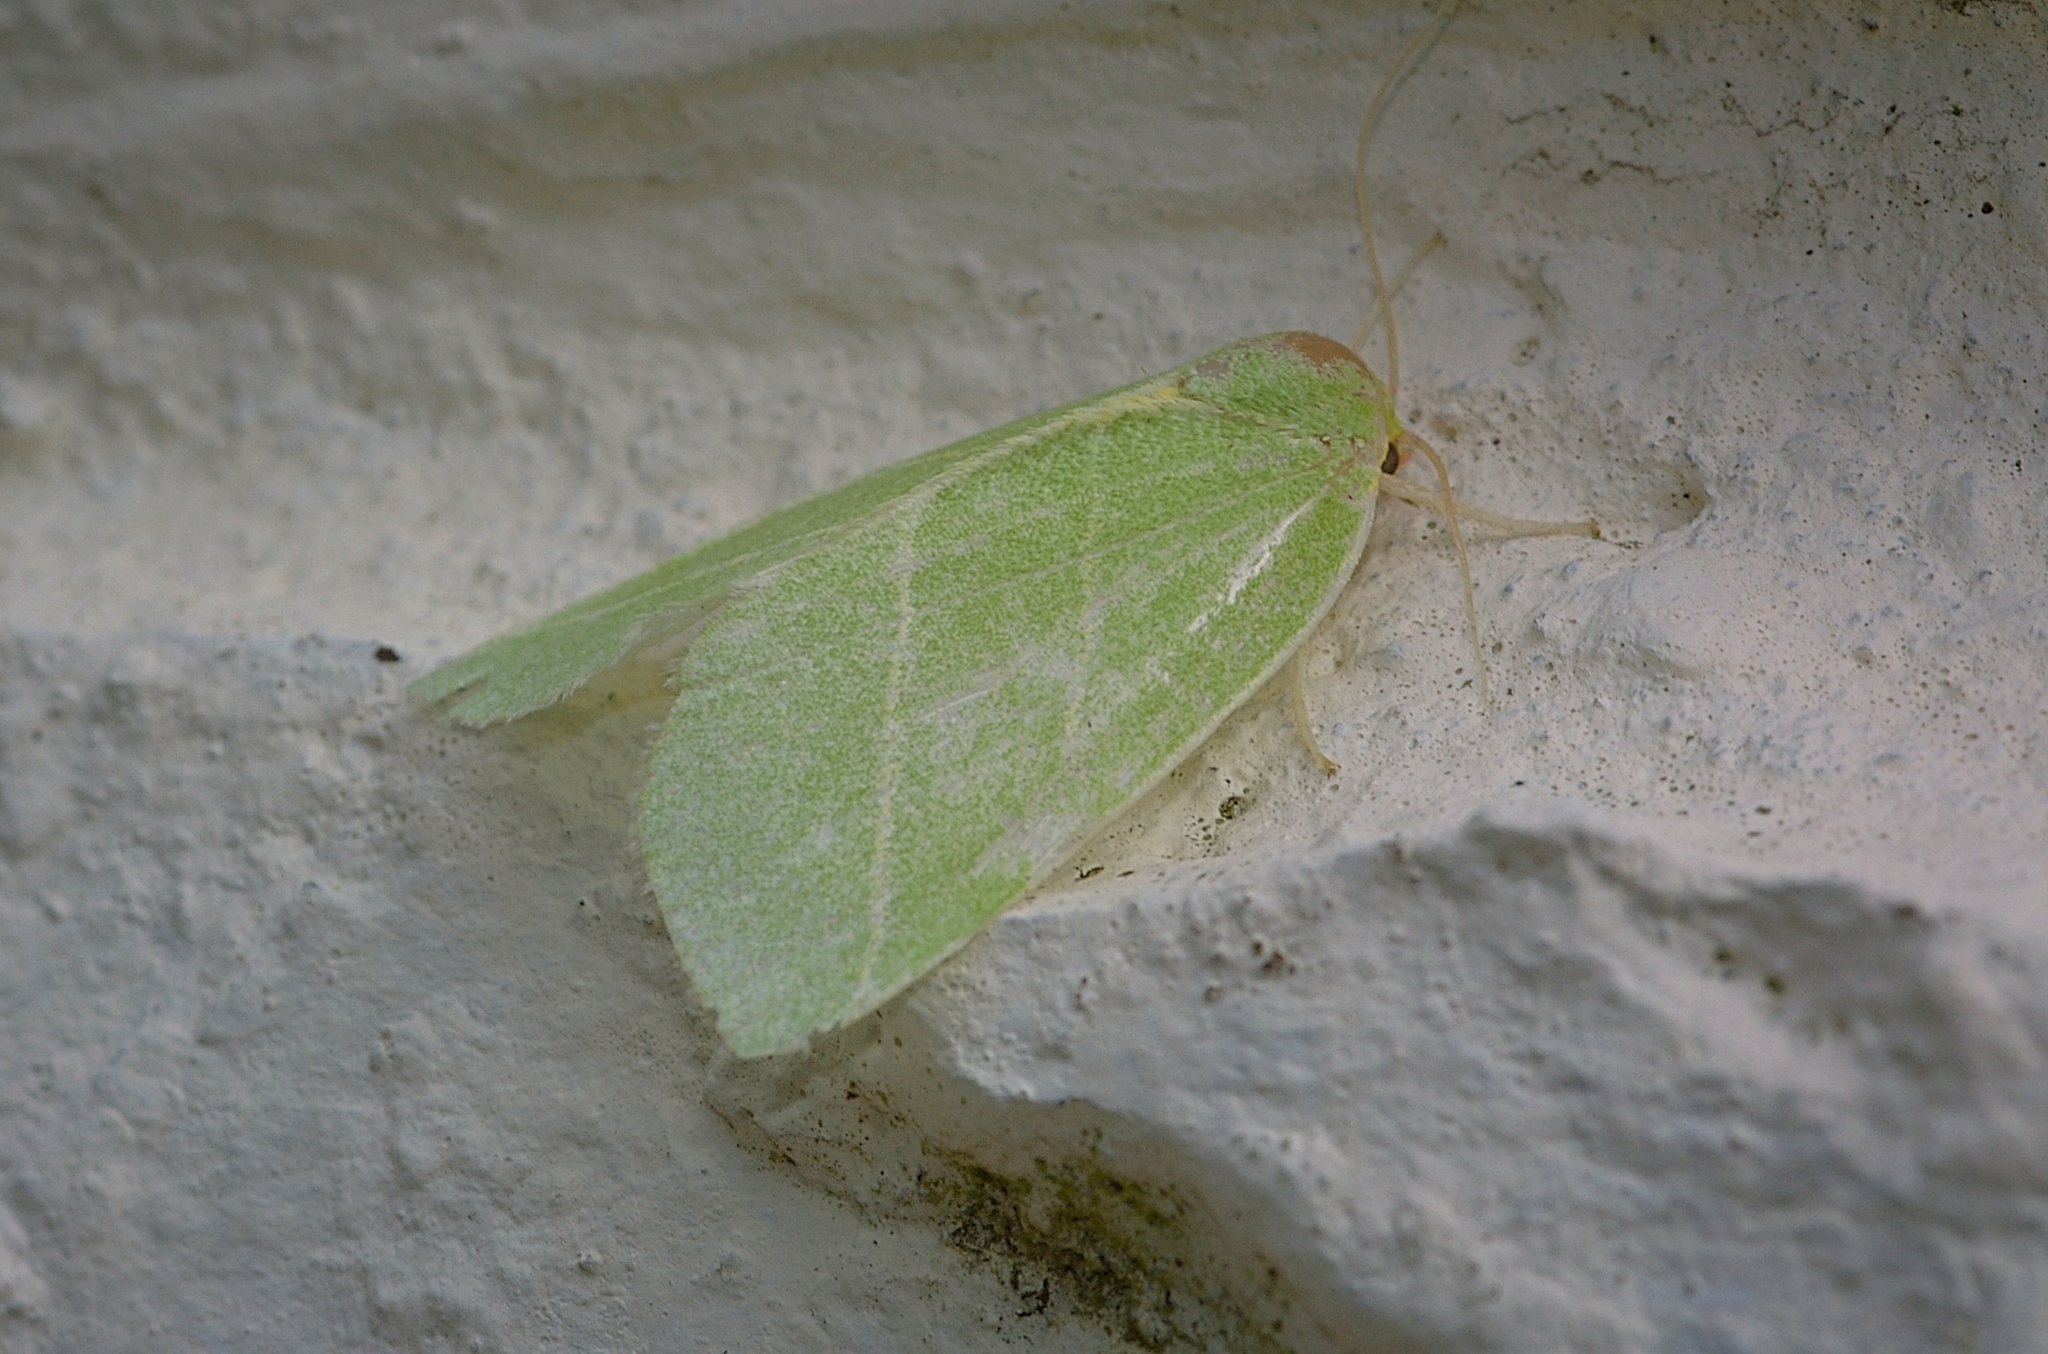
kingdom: Animalia
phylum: Arthropoda
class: Insecta
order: Lepidoptera
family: Nolidae
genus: Bena
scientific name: Bena bicolorana
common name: Scarce silver-lines
